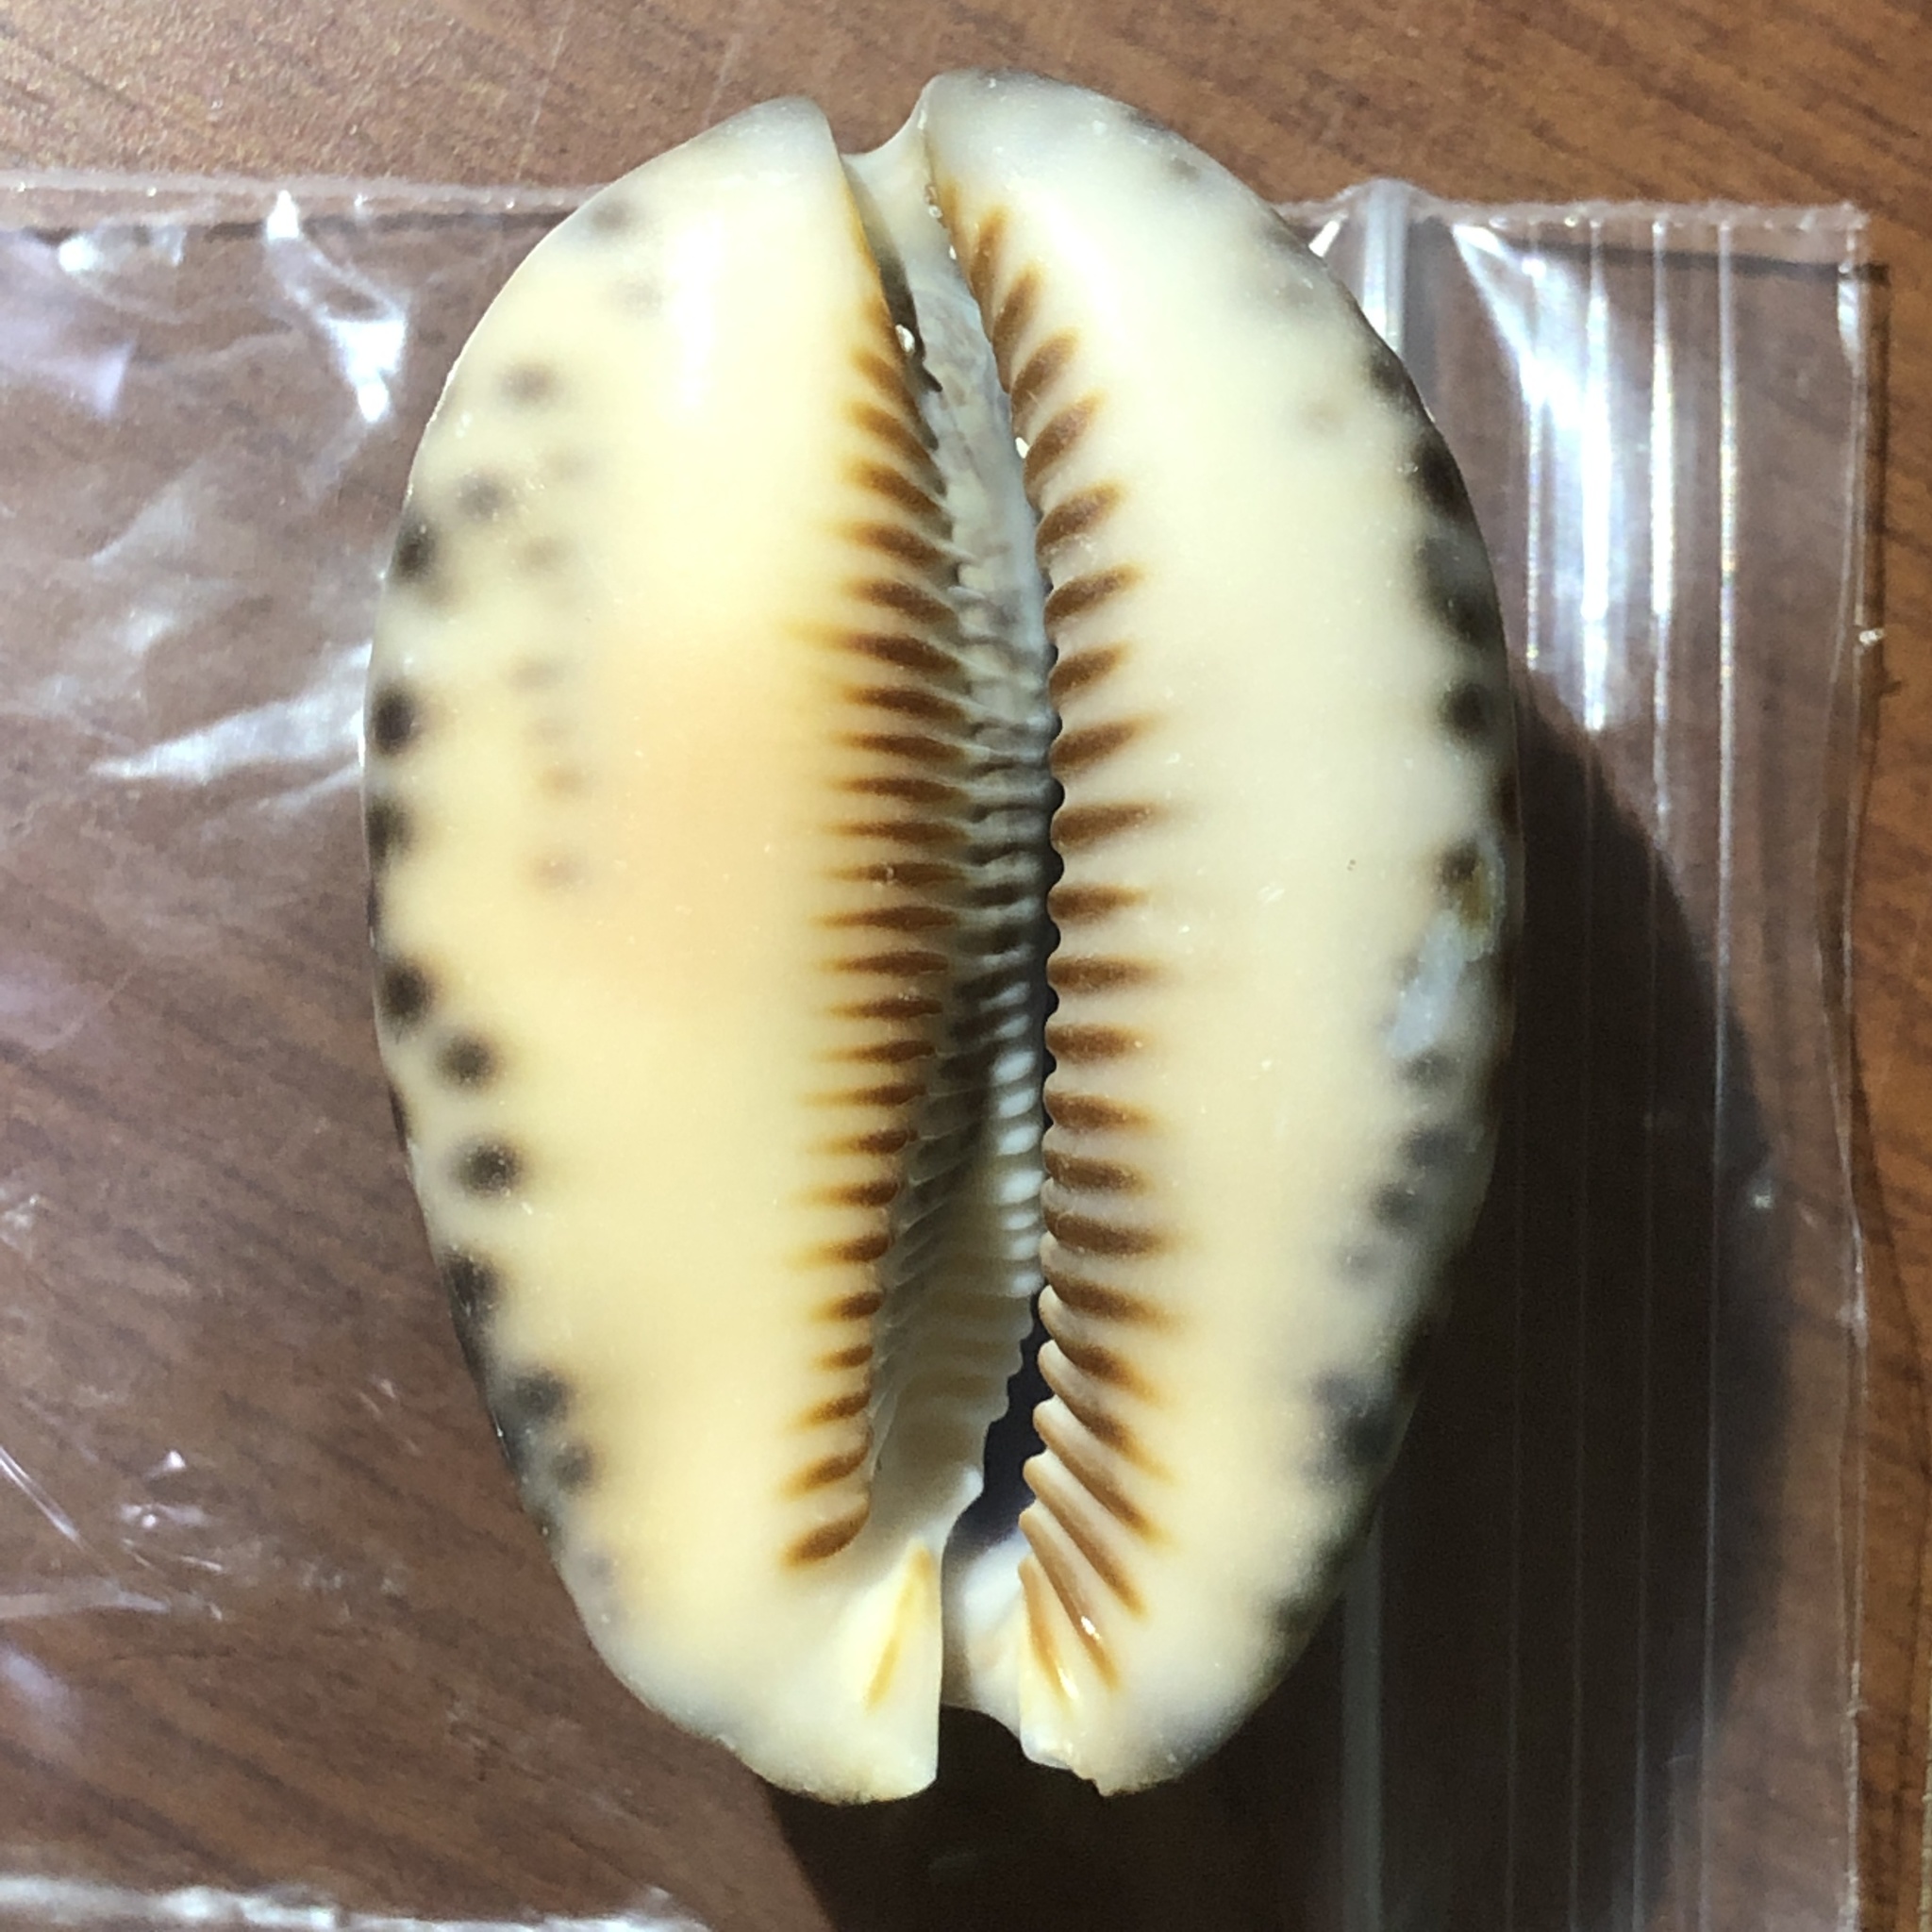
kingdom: Animalia
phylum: Mollusca
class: Gastropoda
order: Littorinimorpha
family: Cypraeidae
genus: Mauritia
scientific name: Mauritia arabica
